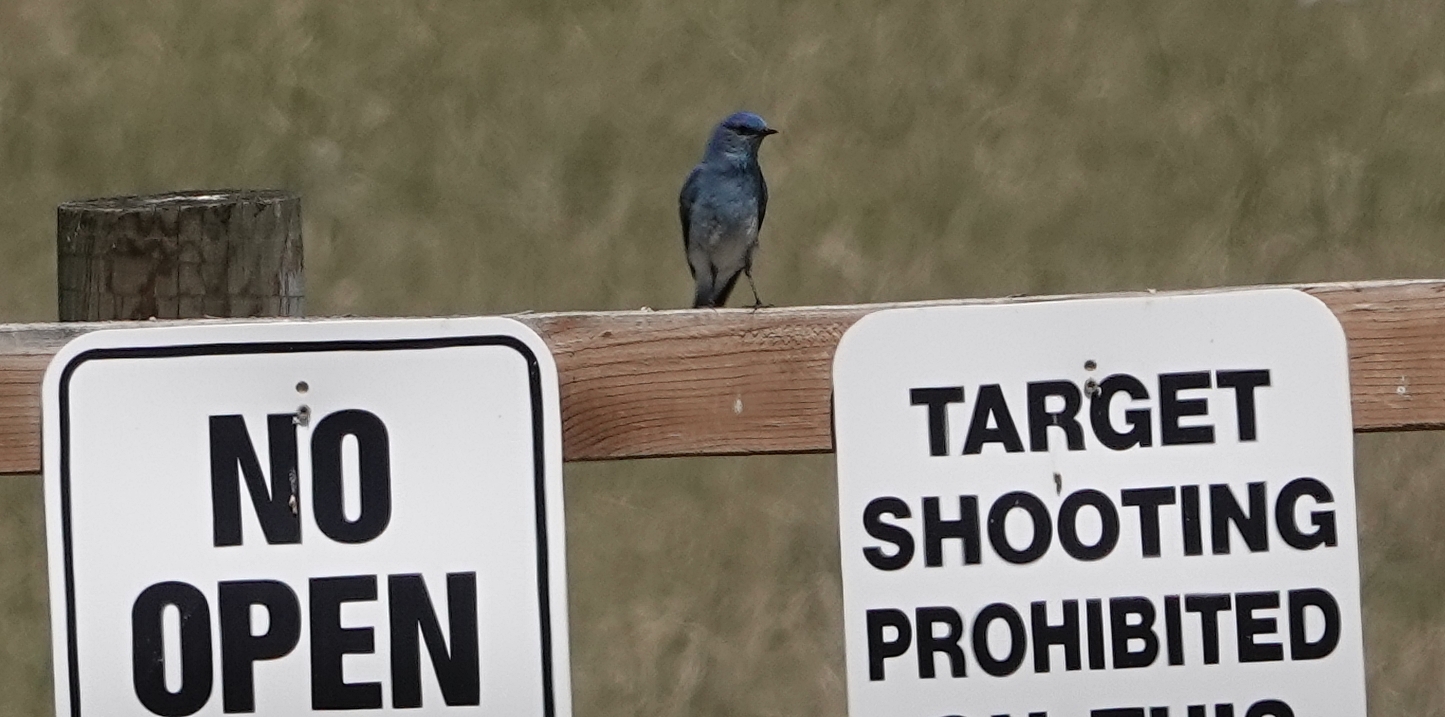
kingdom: Animalia
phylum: Chordata
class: Aves
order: Passeriformes
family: Turdidae
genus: Sialia
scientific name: Sialia currucoides
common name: Mountain bluebird
